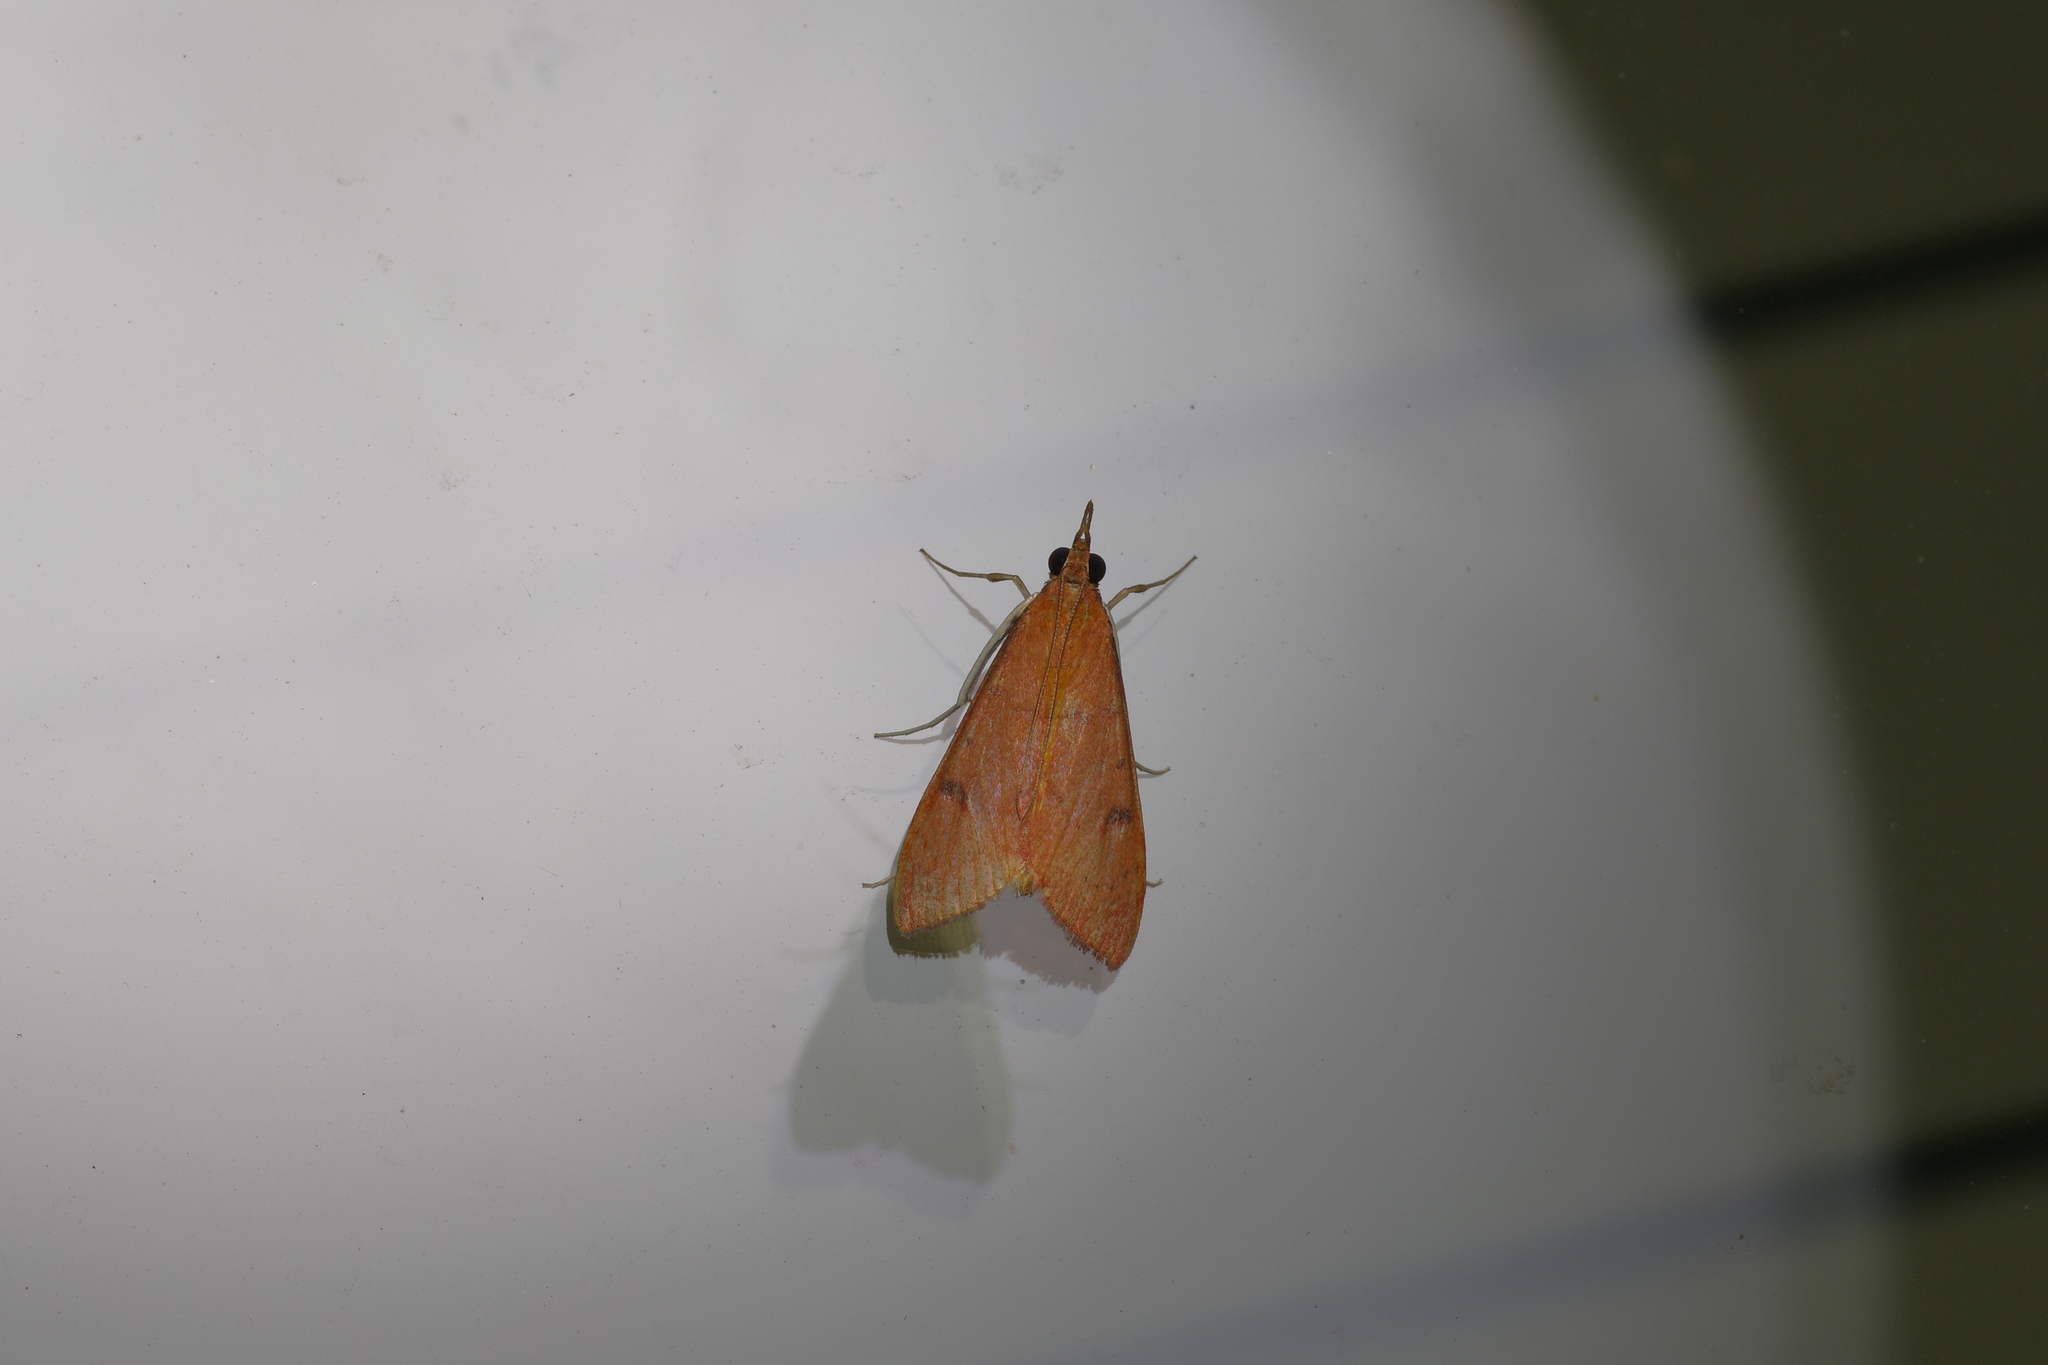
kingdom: Animalia
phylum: Arthropoda
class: Insecta
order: Lepidoptera
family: Crambidae
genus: Uresiphita
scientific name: Uresiphita reversalis
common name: Genista broom moth
